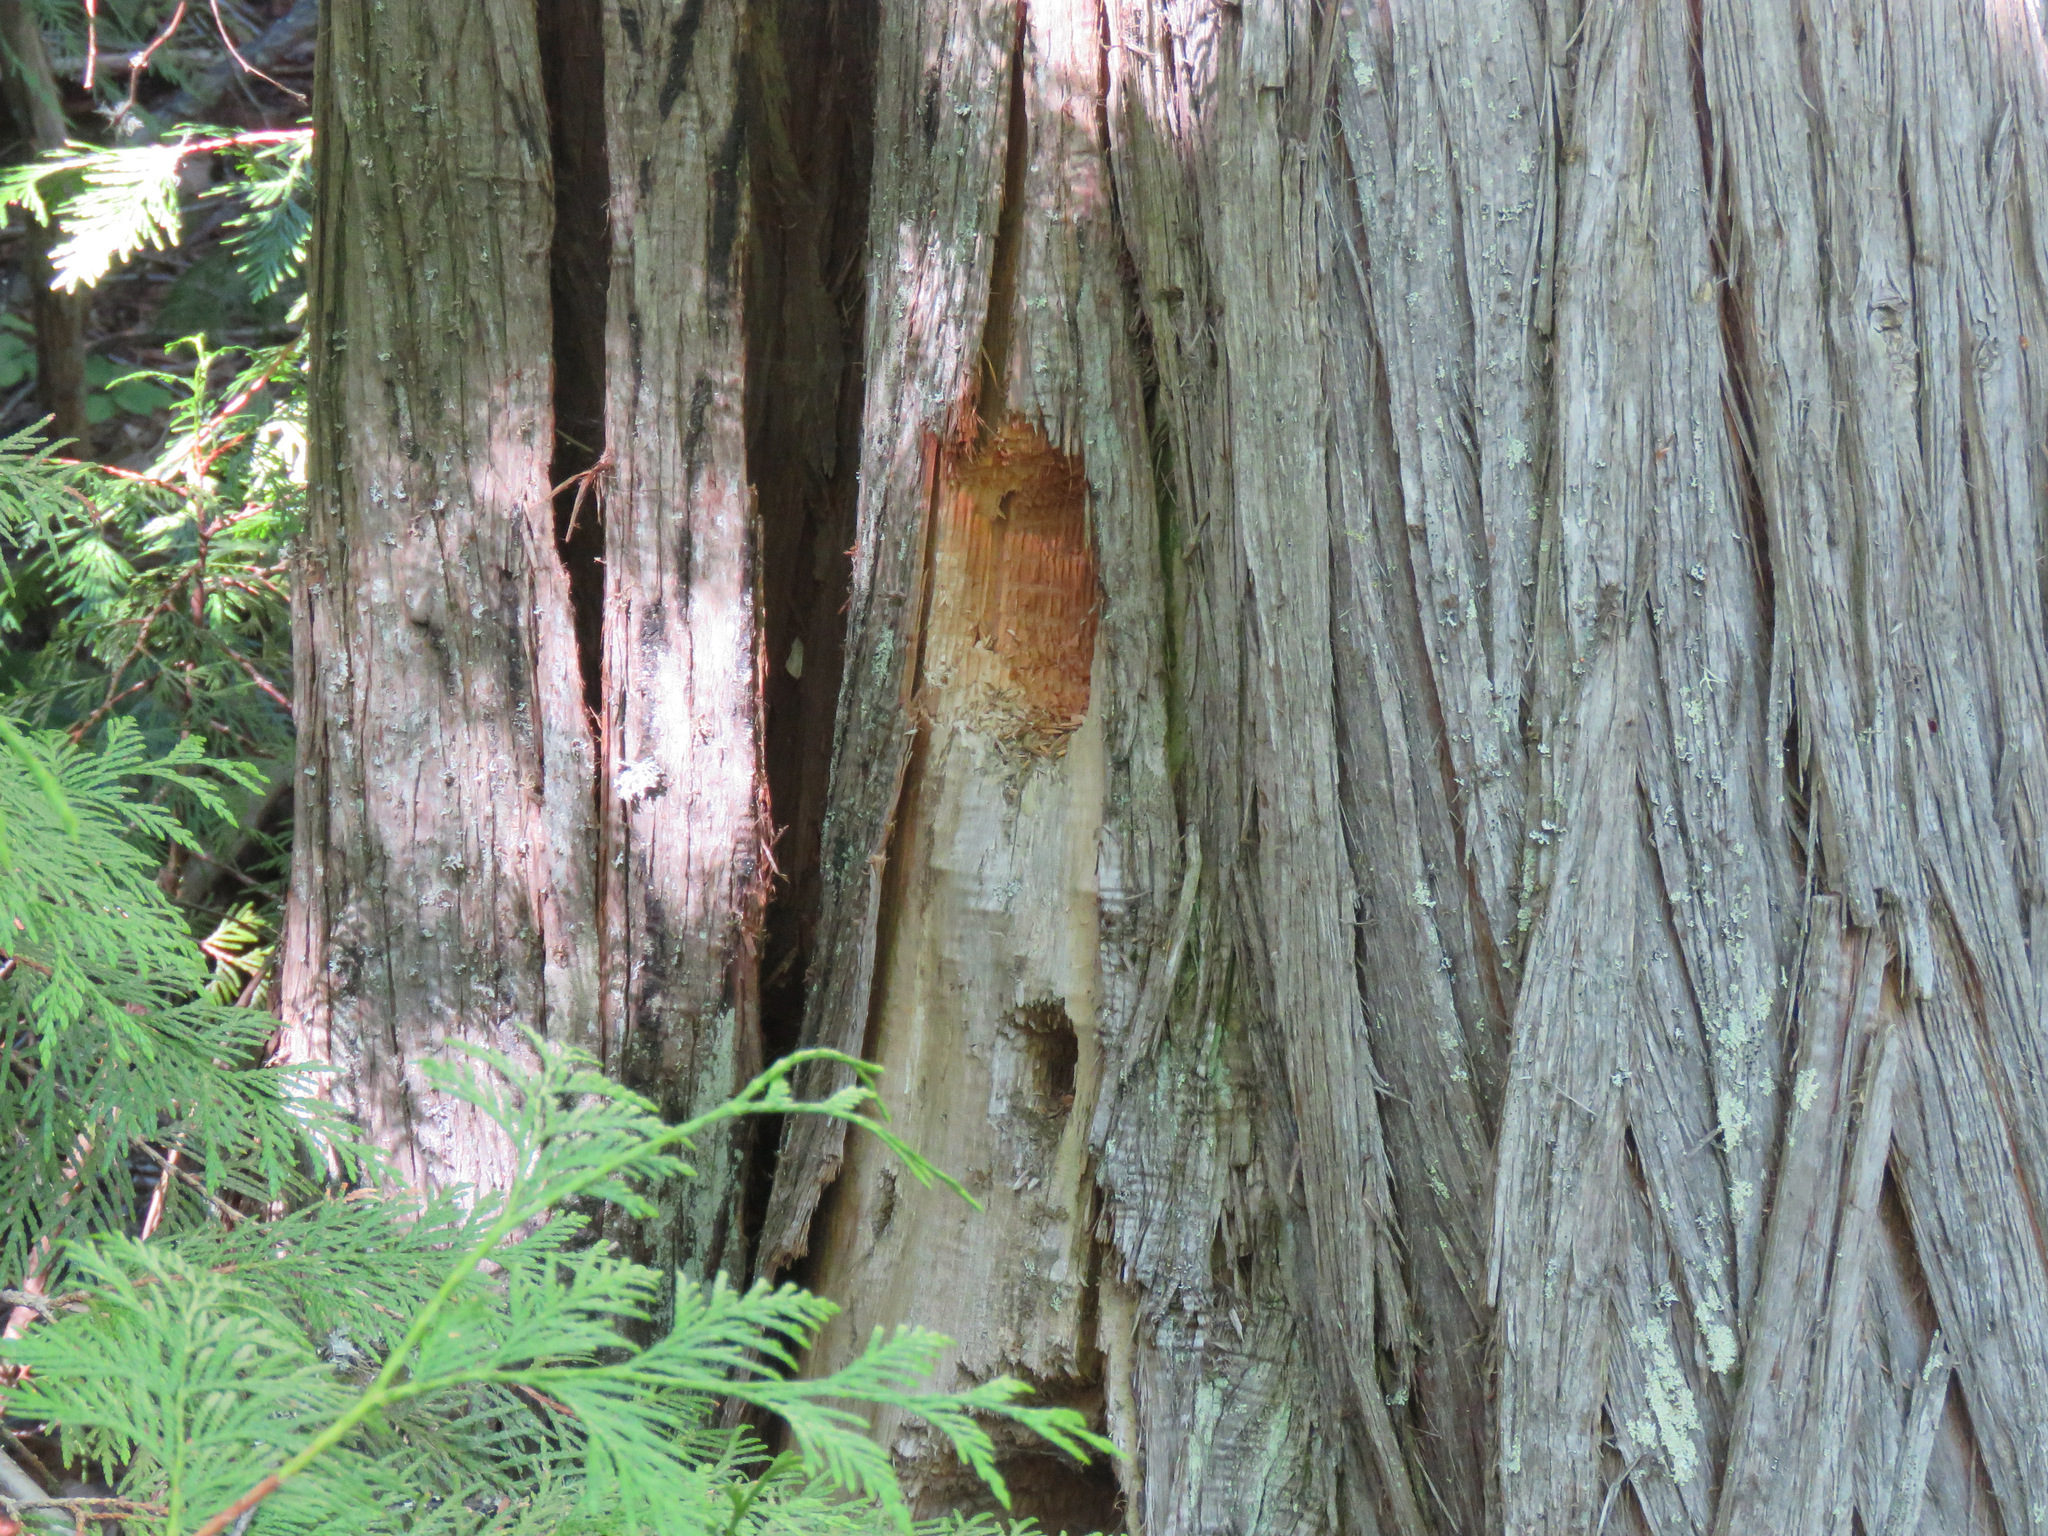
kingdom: Animalia
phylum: Chordata
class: Aves
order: Piciformes
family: Picidae
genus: Dryocopus
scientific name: Dryocopus pileatus
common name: Pileated woodpecker
